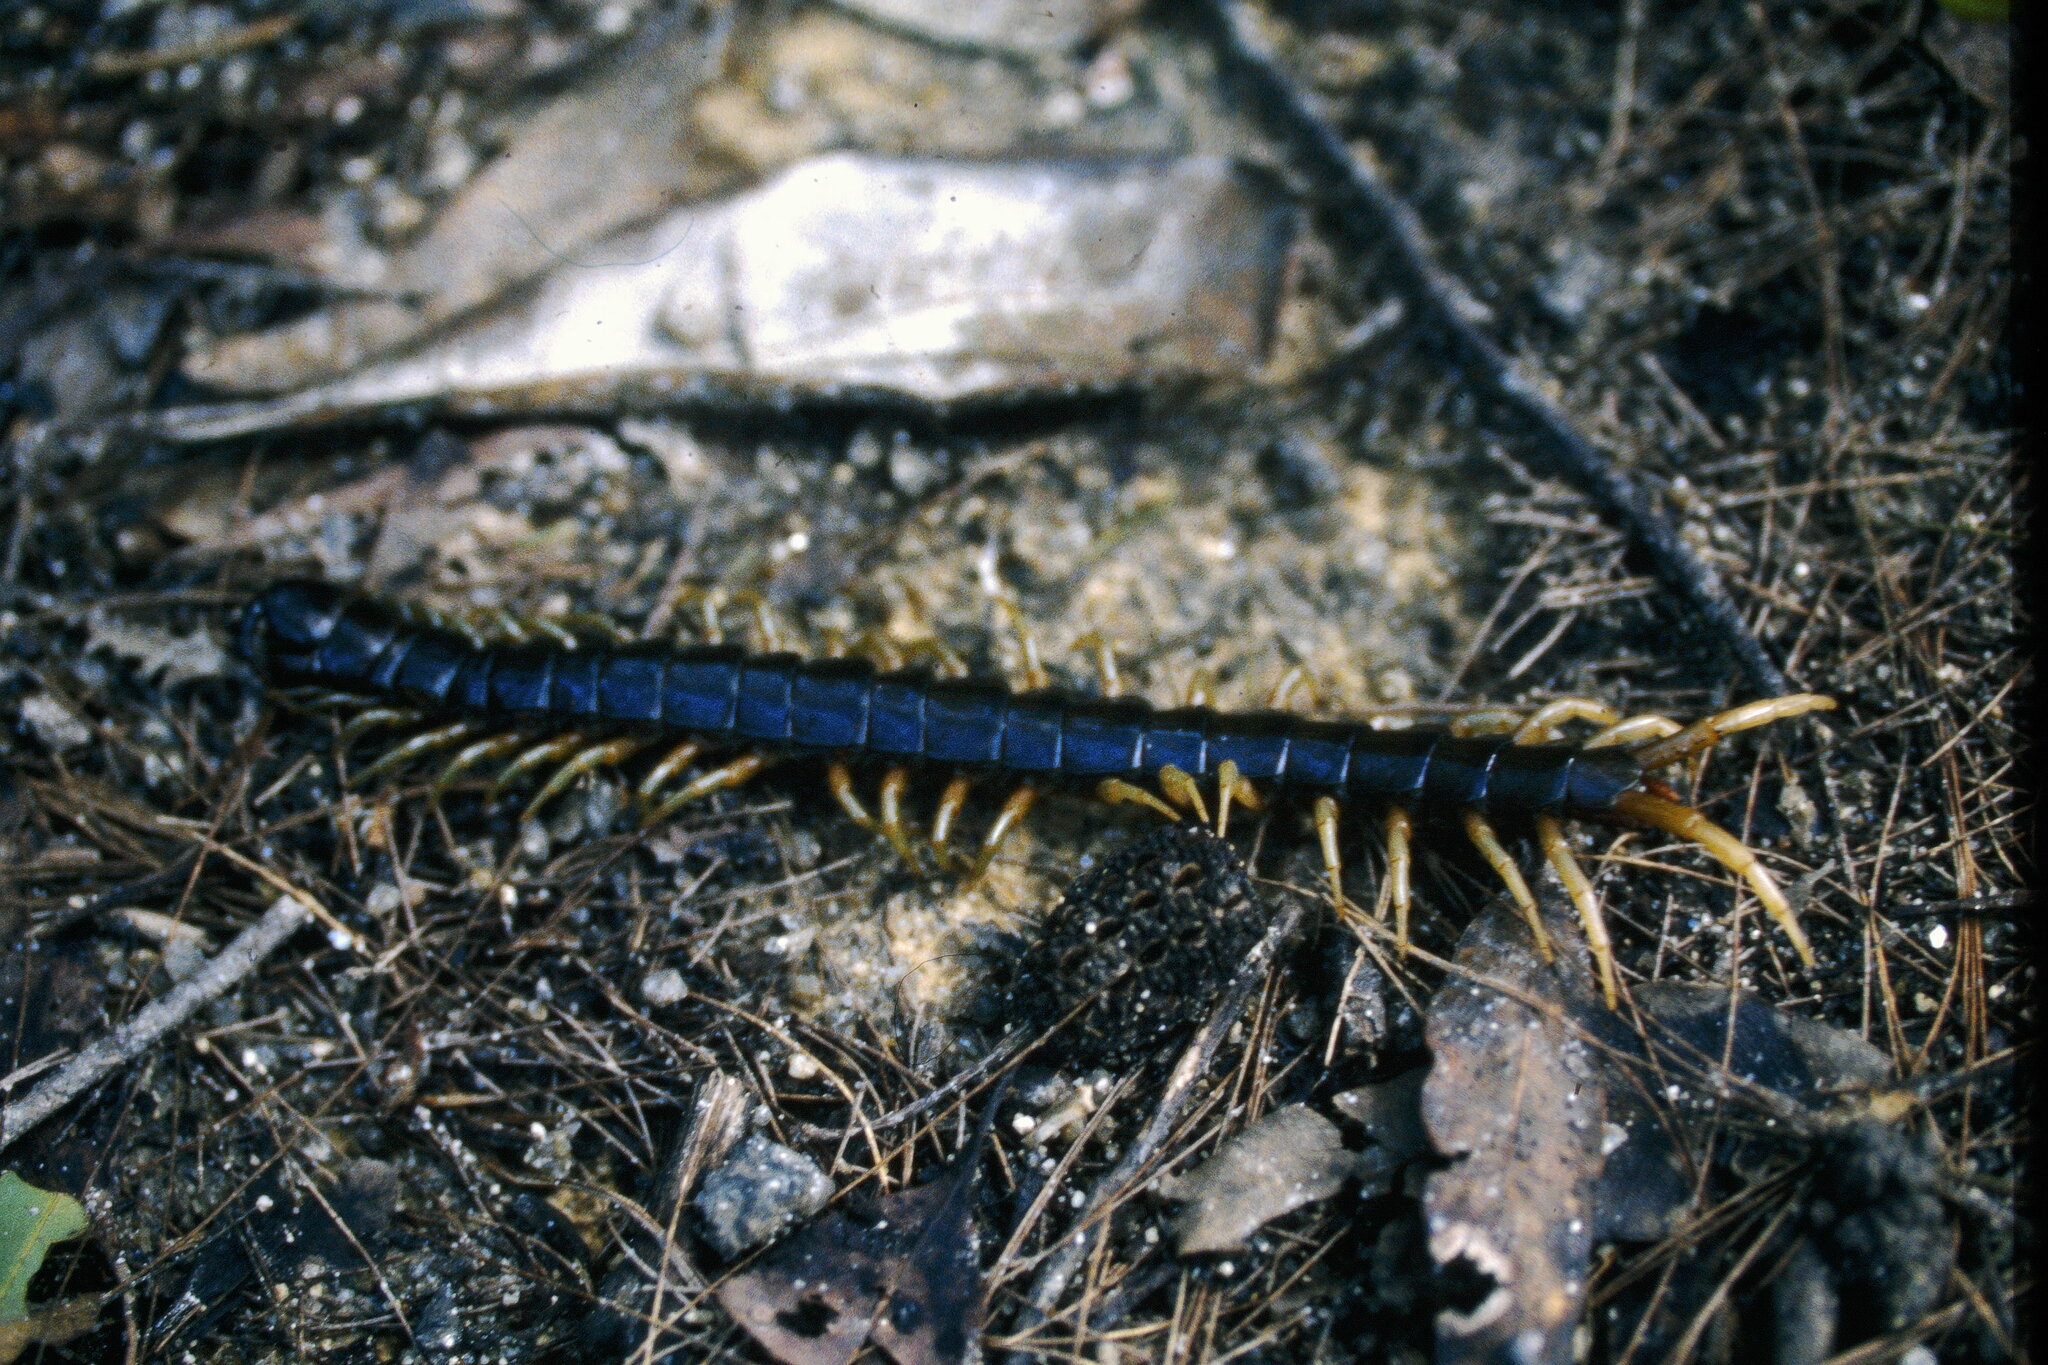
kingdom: Animalia
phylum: Arthropoda
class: Chilopoda
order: Scolopendromorpha
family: Scolopendridae
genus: Ethmostigmus
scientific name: Ethmostigmus rubripes
